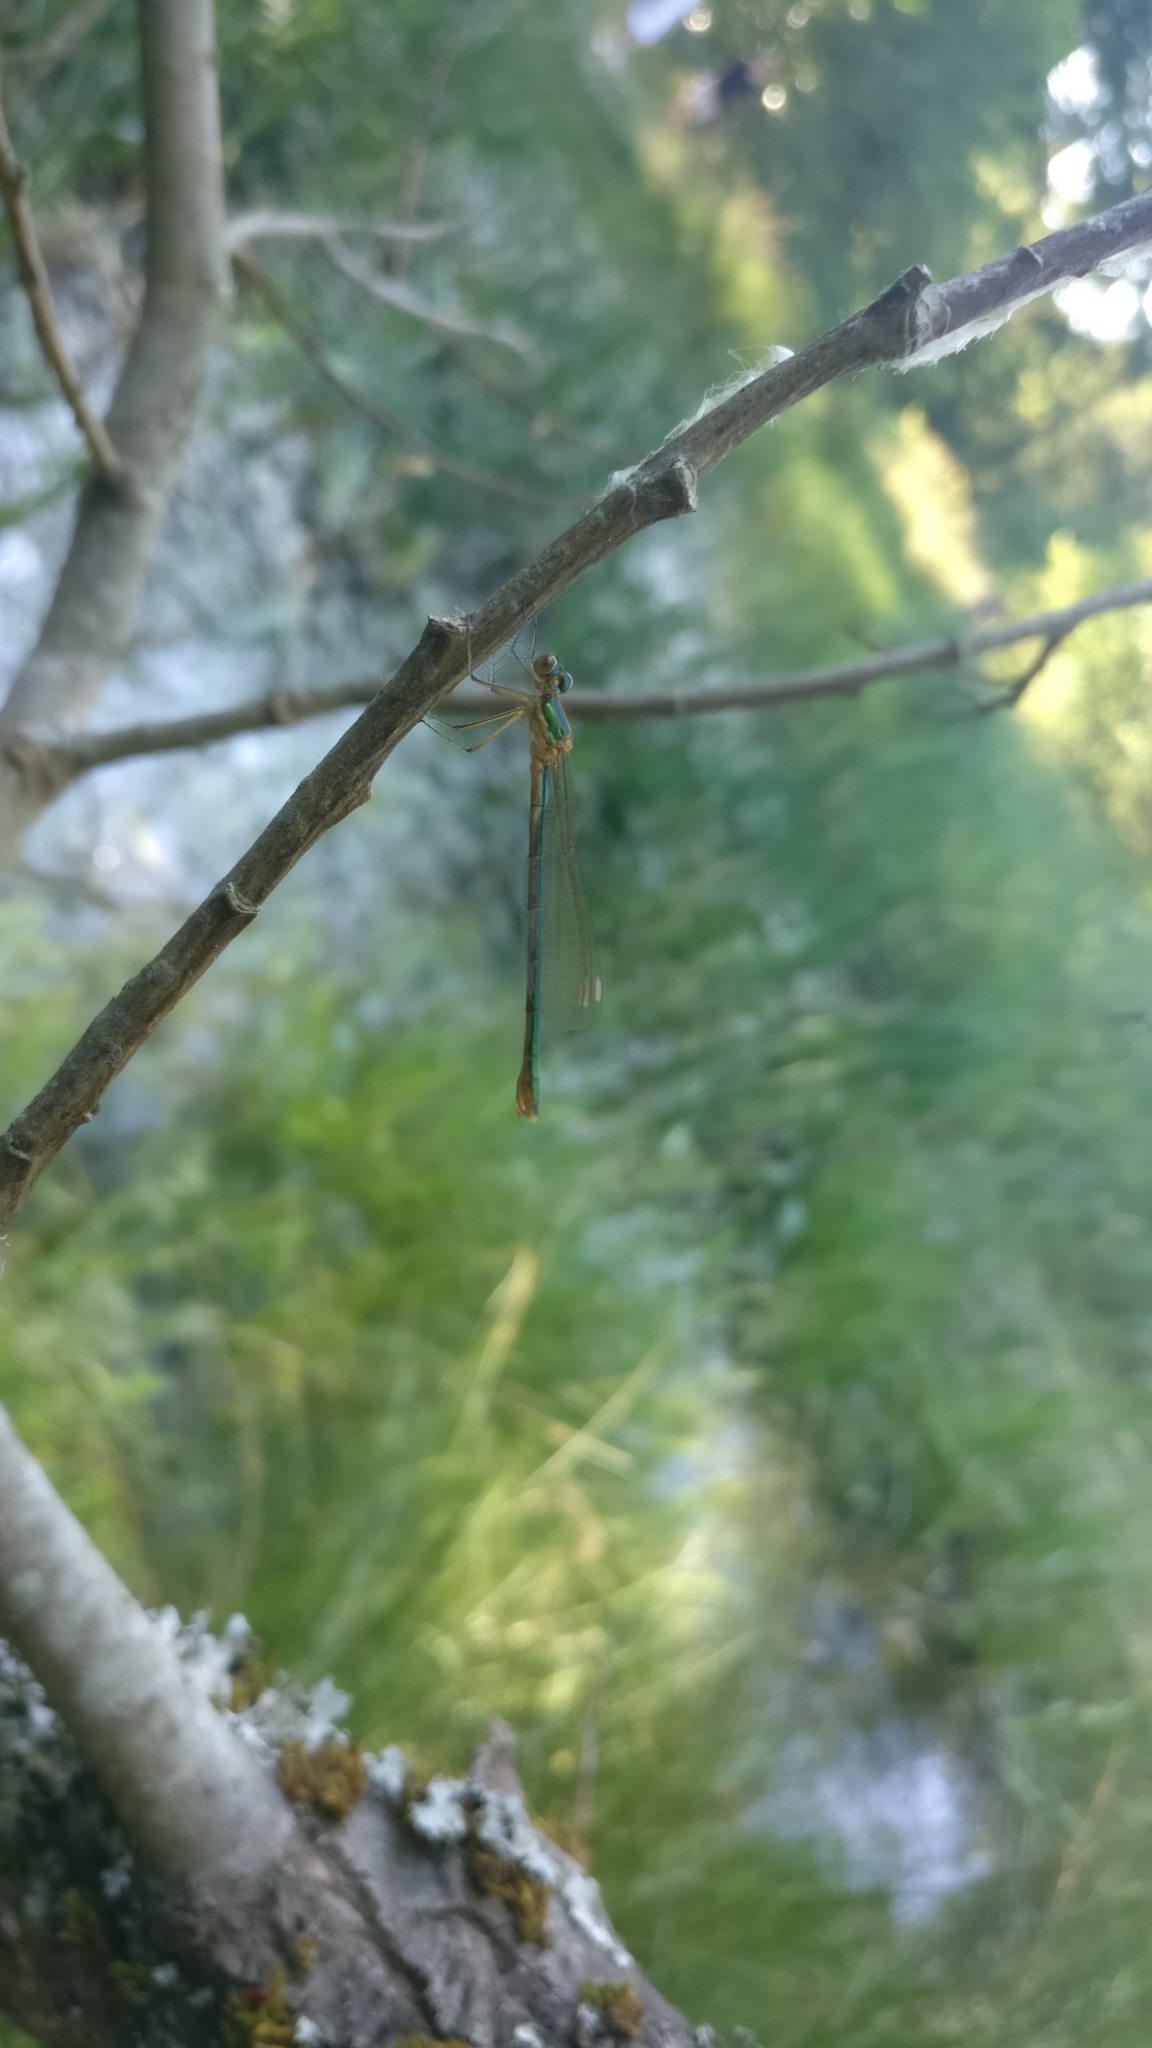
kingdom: Animalia
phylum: Arthropoda
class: Insecta
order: Odonata
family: Lestidae
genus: Lestes
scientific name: Lestes sponsa
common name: Common spreadwing
